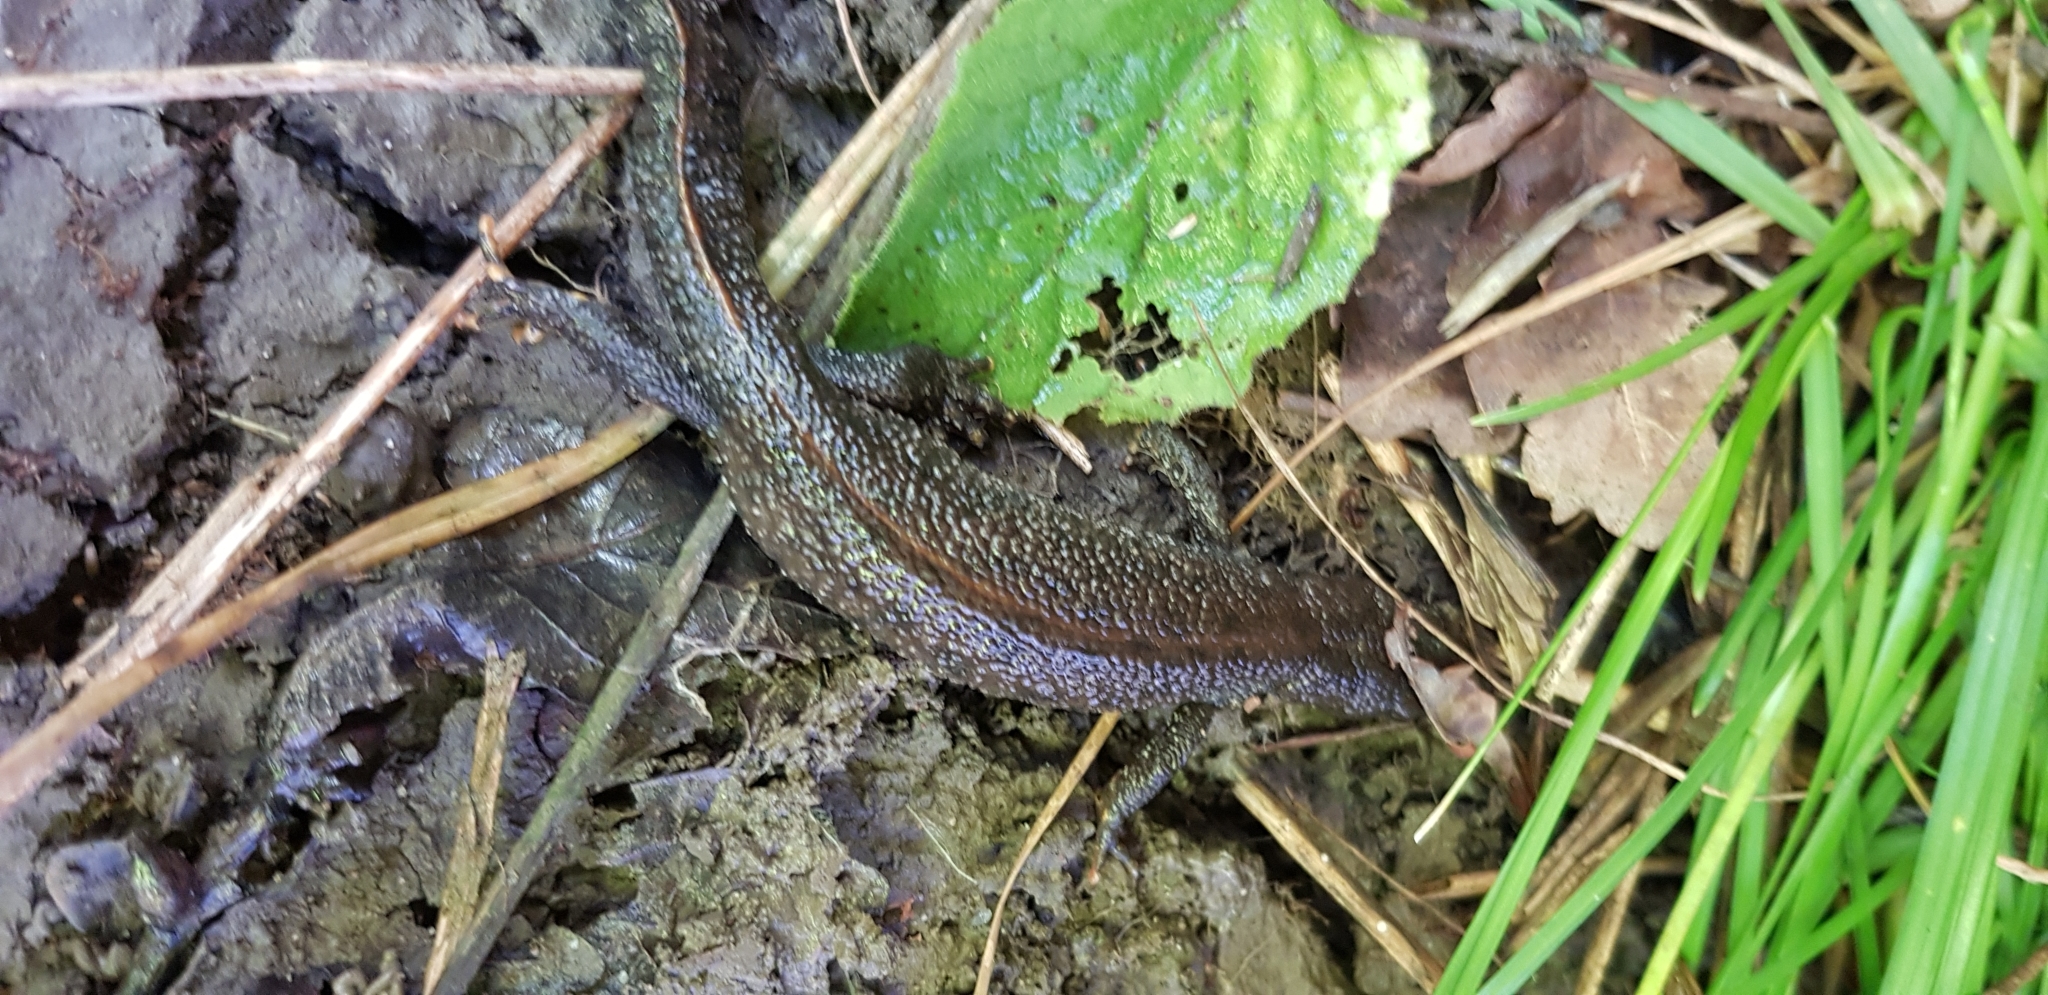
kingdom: Animalia
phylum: Chordata
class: Amphibia
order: Caudata
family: Salamandridae
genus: Triturus
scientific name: Triturus cristatus
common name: Crested newt
